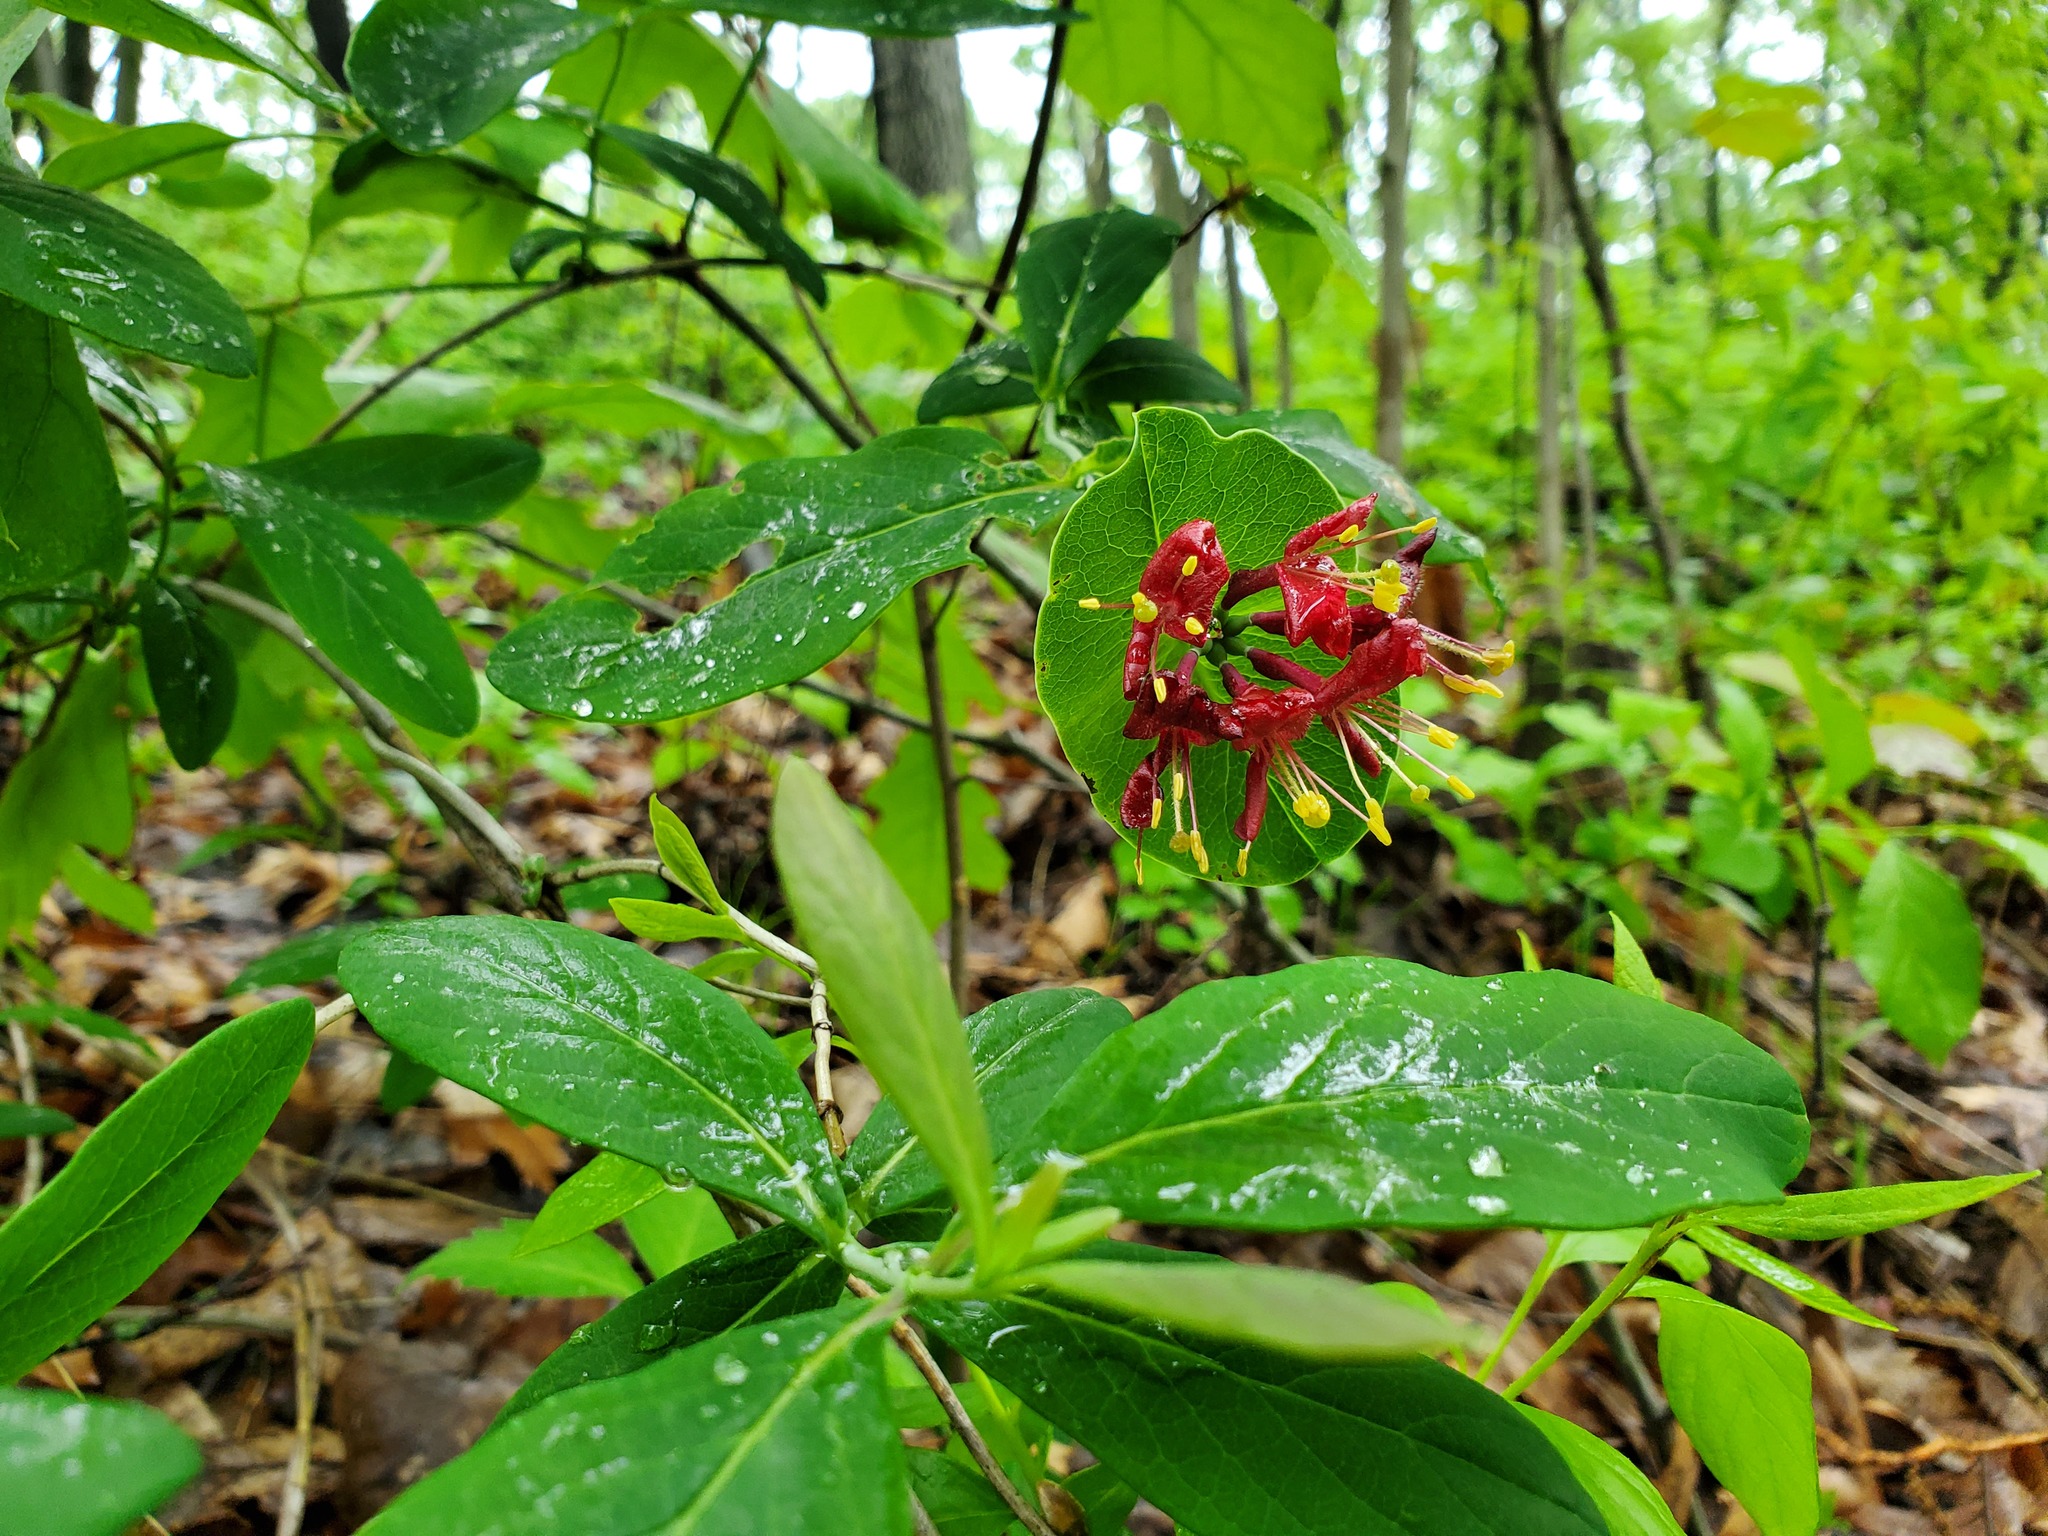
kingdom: Plantae
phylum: Tracheophyta
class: Magnoliopsida
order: Dipsacales
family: Caprifoliaceae
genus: Lonicera
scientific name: Lonicera dioica
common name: Limber honeysuckle
